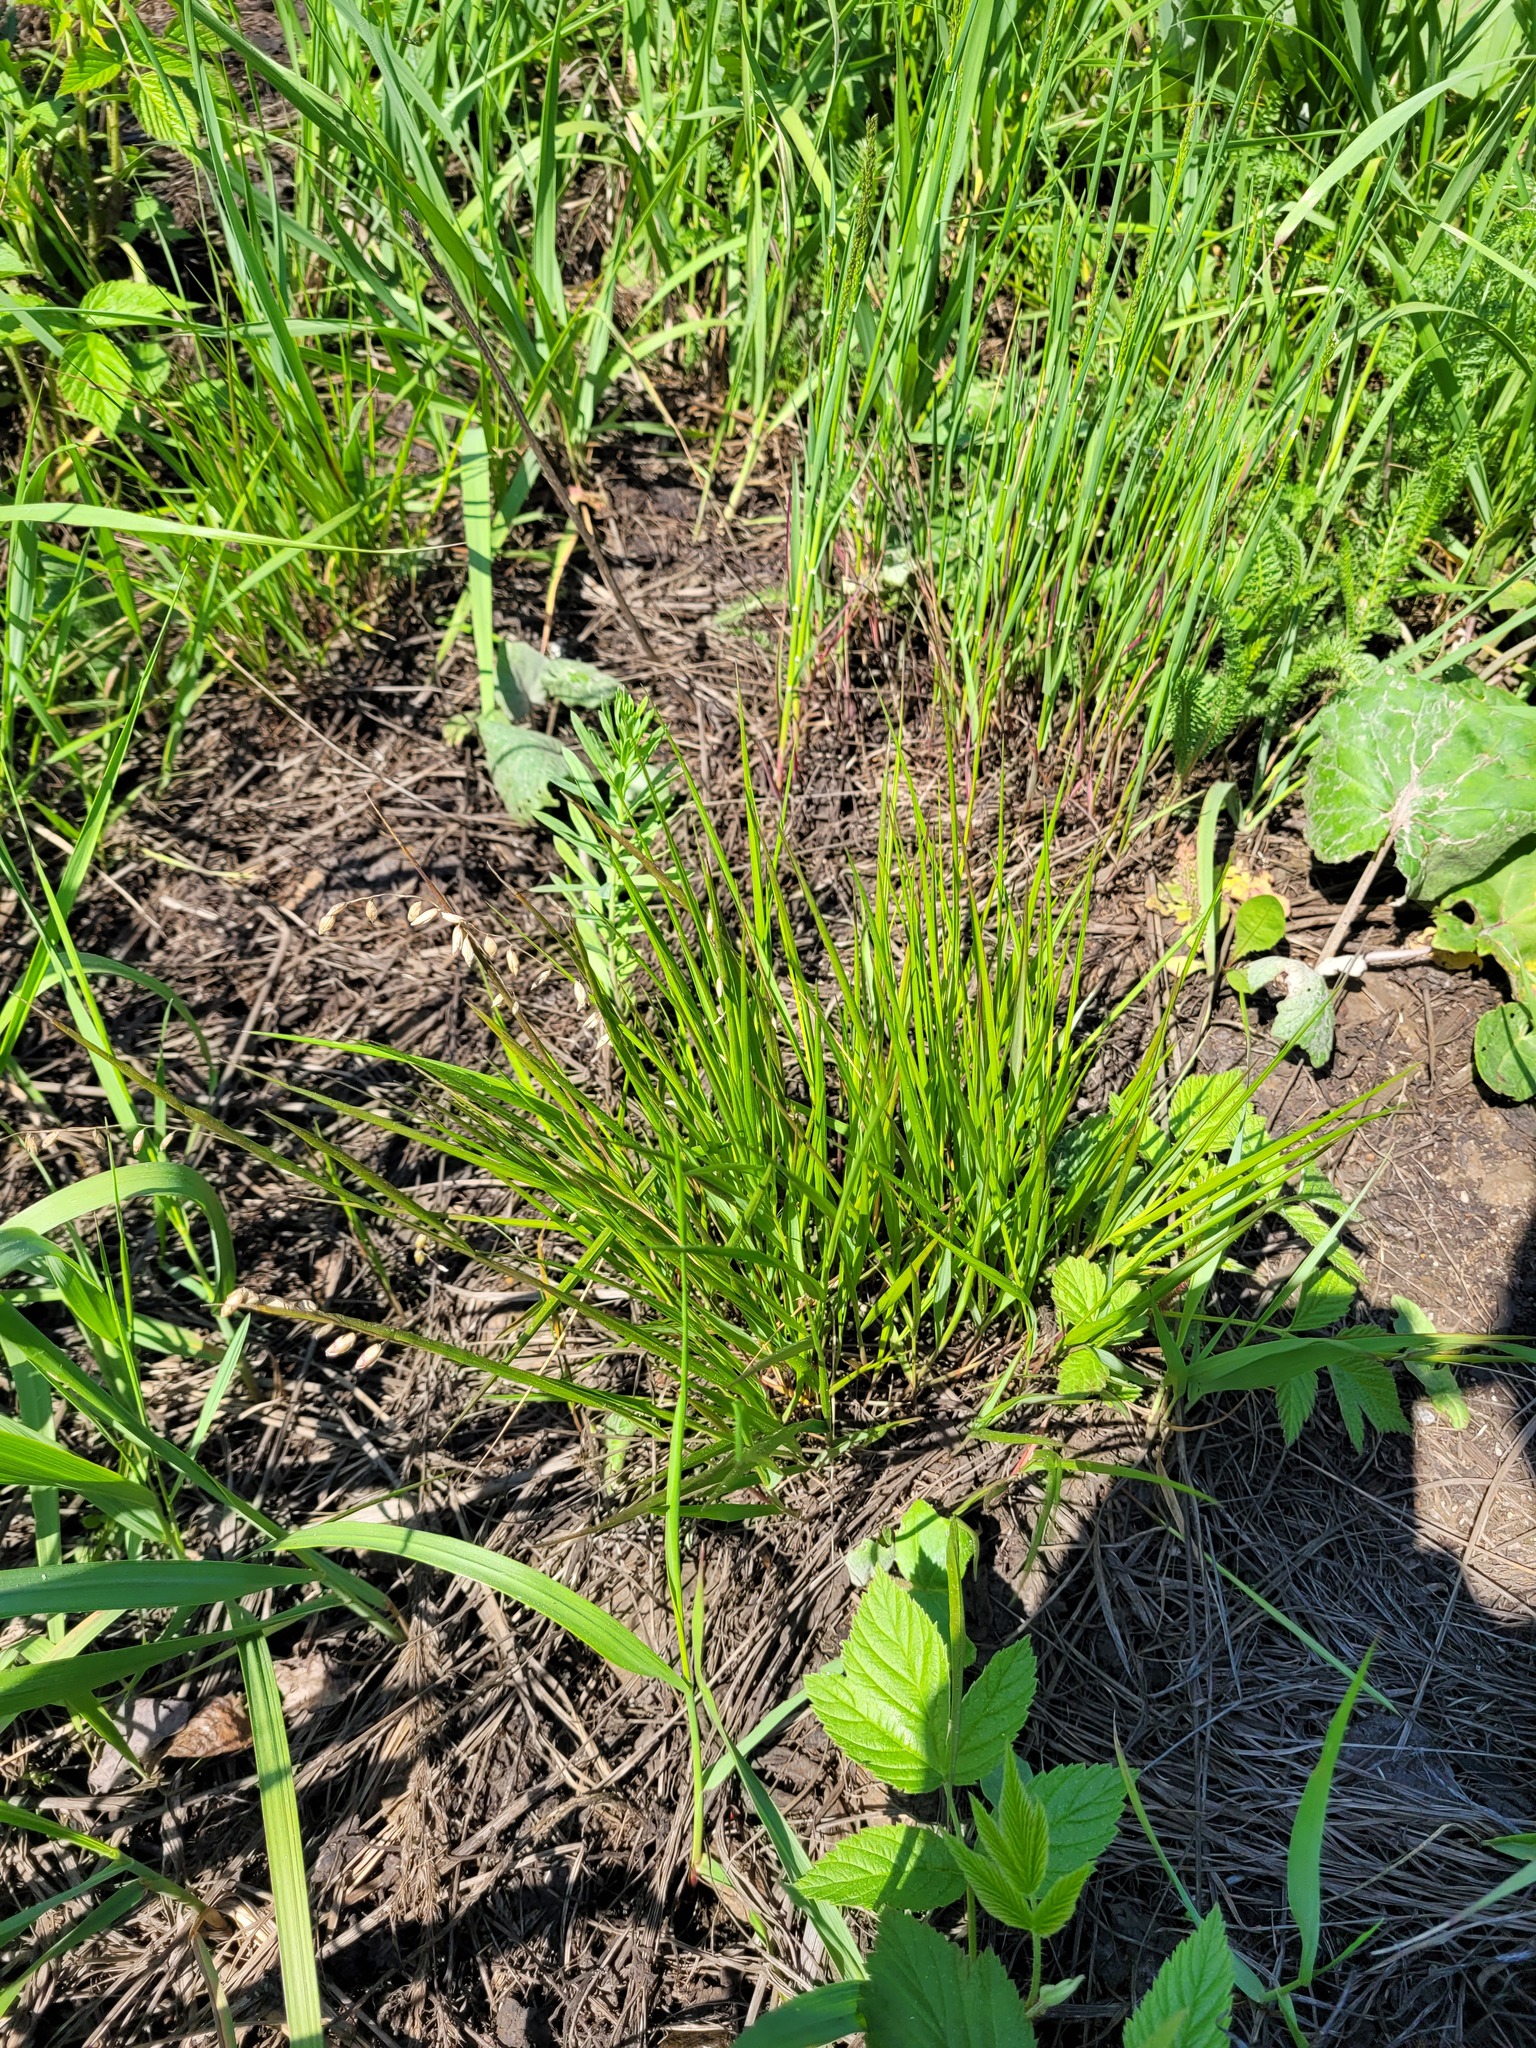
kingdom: Plantae
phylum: Tracheophyta
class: Liliopsida
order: Poales
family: Poaceae
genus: Melica
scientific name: Melica nutans
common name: Mountain melick
